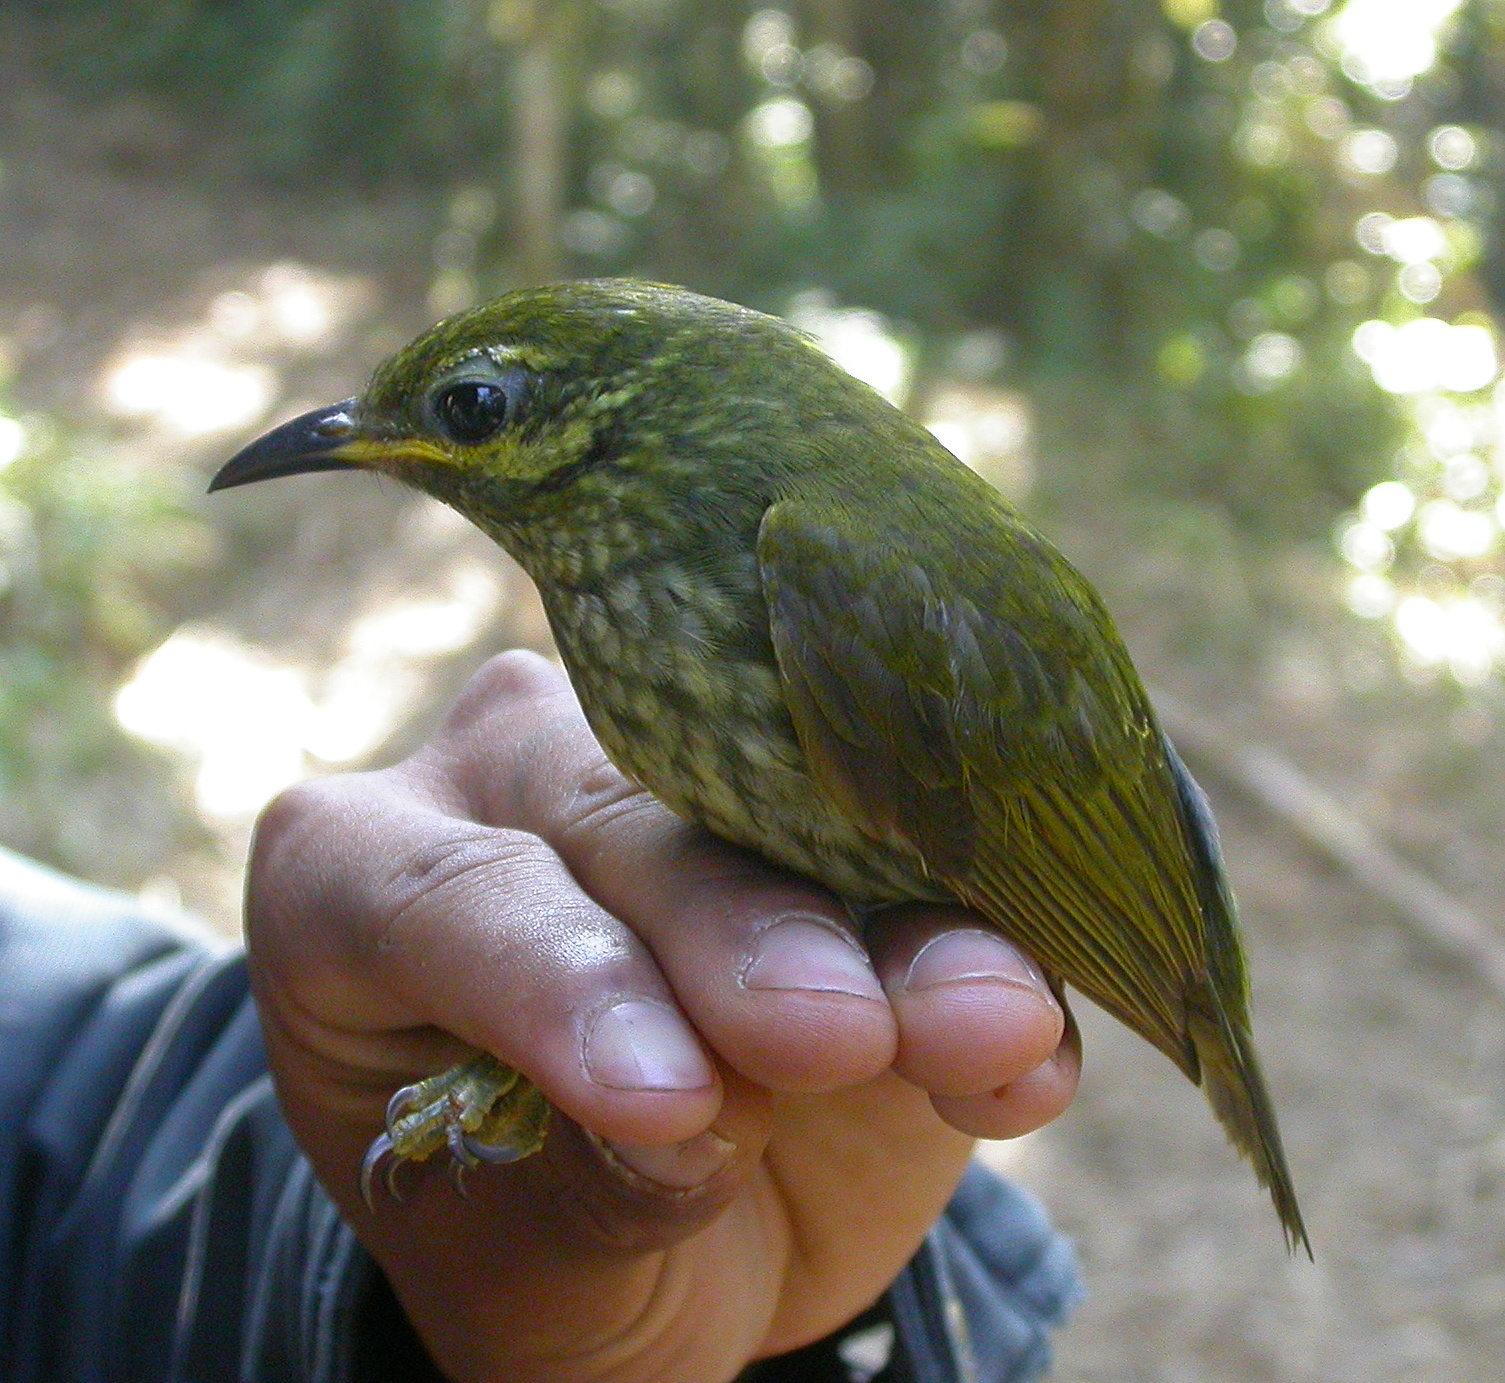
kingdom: Animalia
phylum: Chordata
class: Aves
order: Passeriformes
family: Philepittidae
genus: Philepitta
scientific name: Philepitta castanea
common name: Velvet asity
